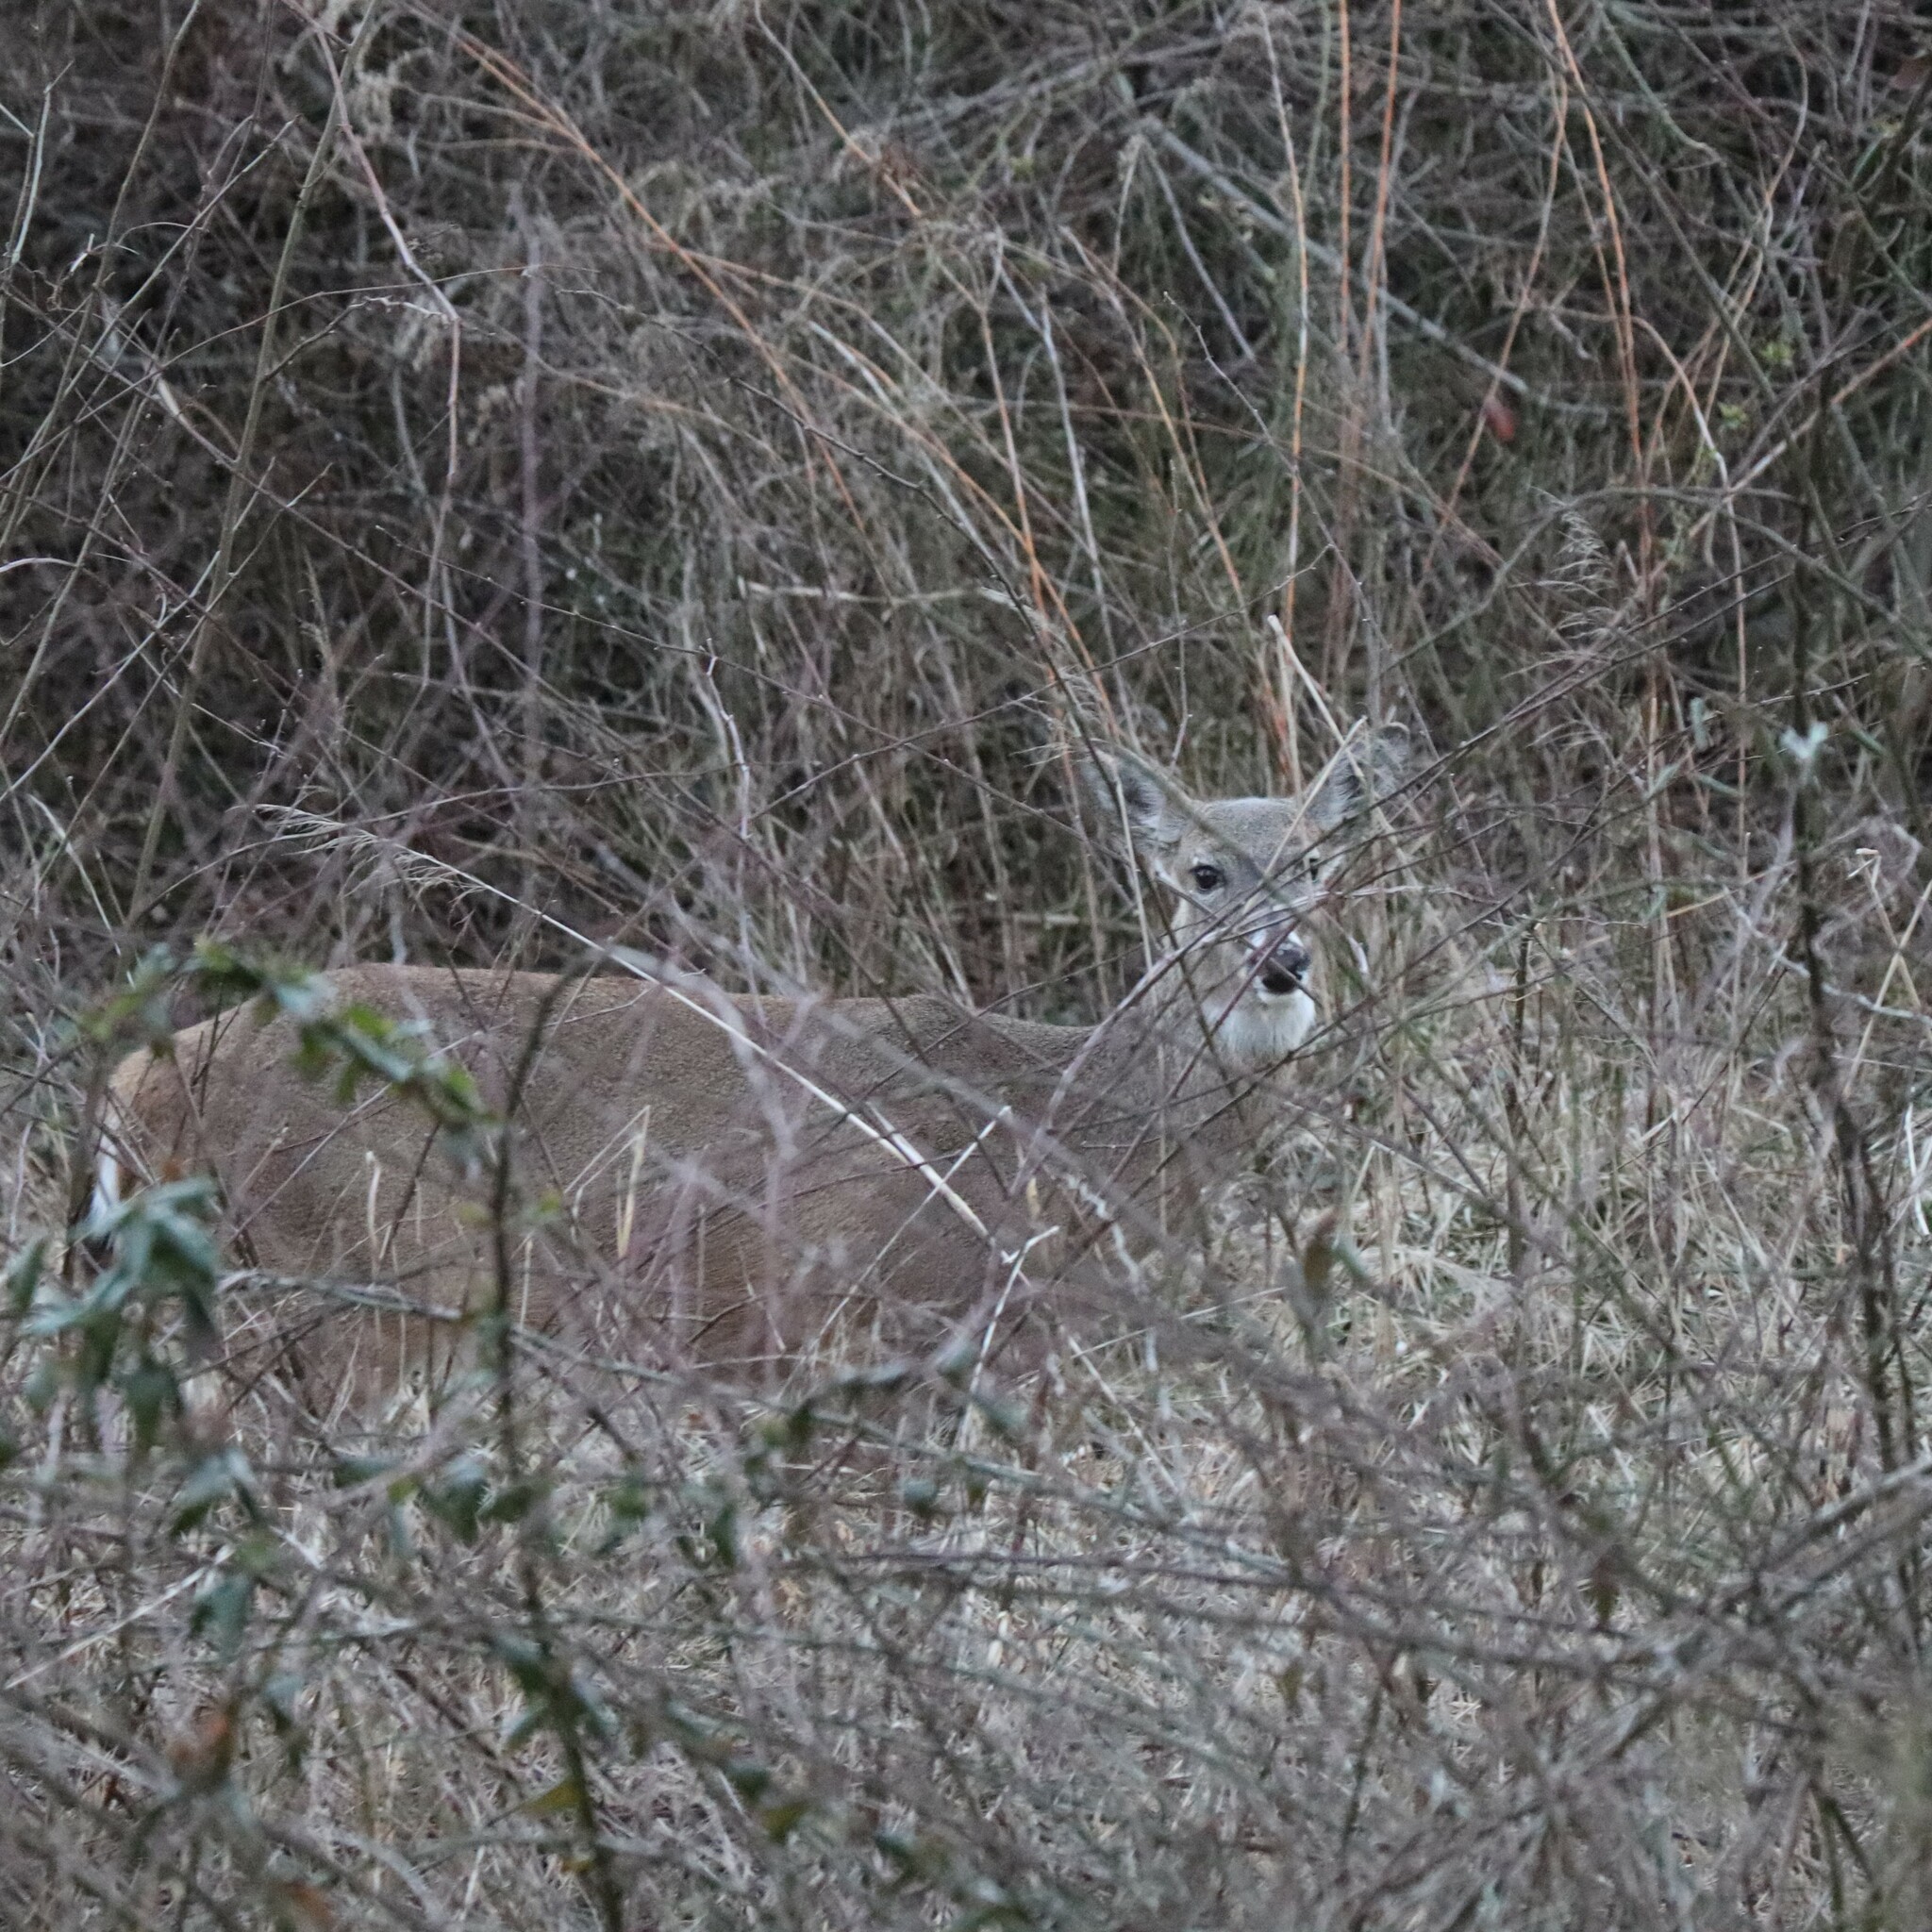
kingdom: Animalia
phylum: Chordata
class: Mammalia
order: Artiodactyla
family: Cervidae
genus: Odocoileus
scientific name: Odocoileus virginianus
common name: White-tailed deer
